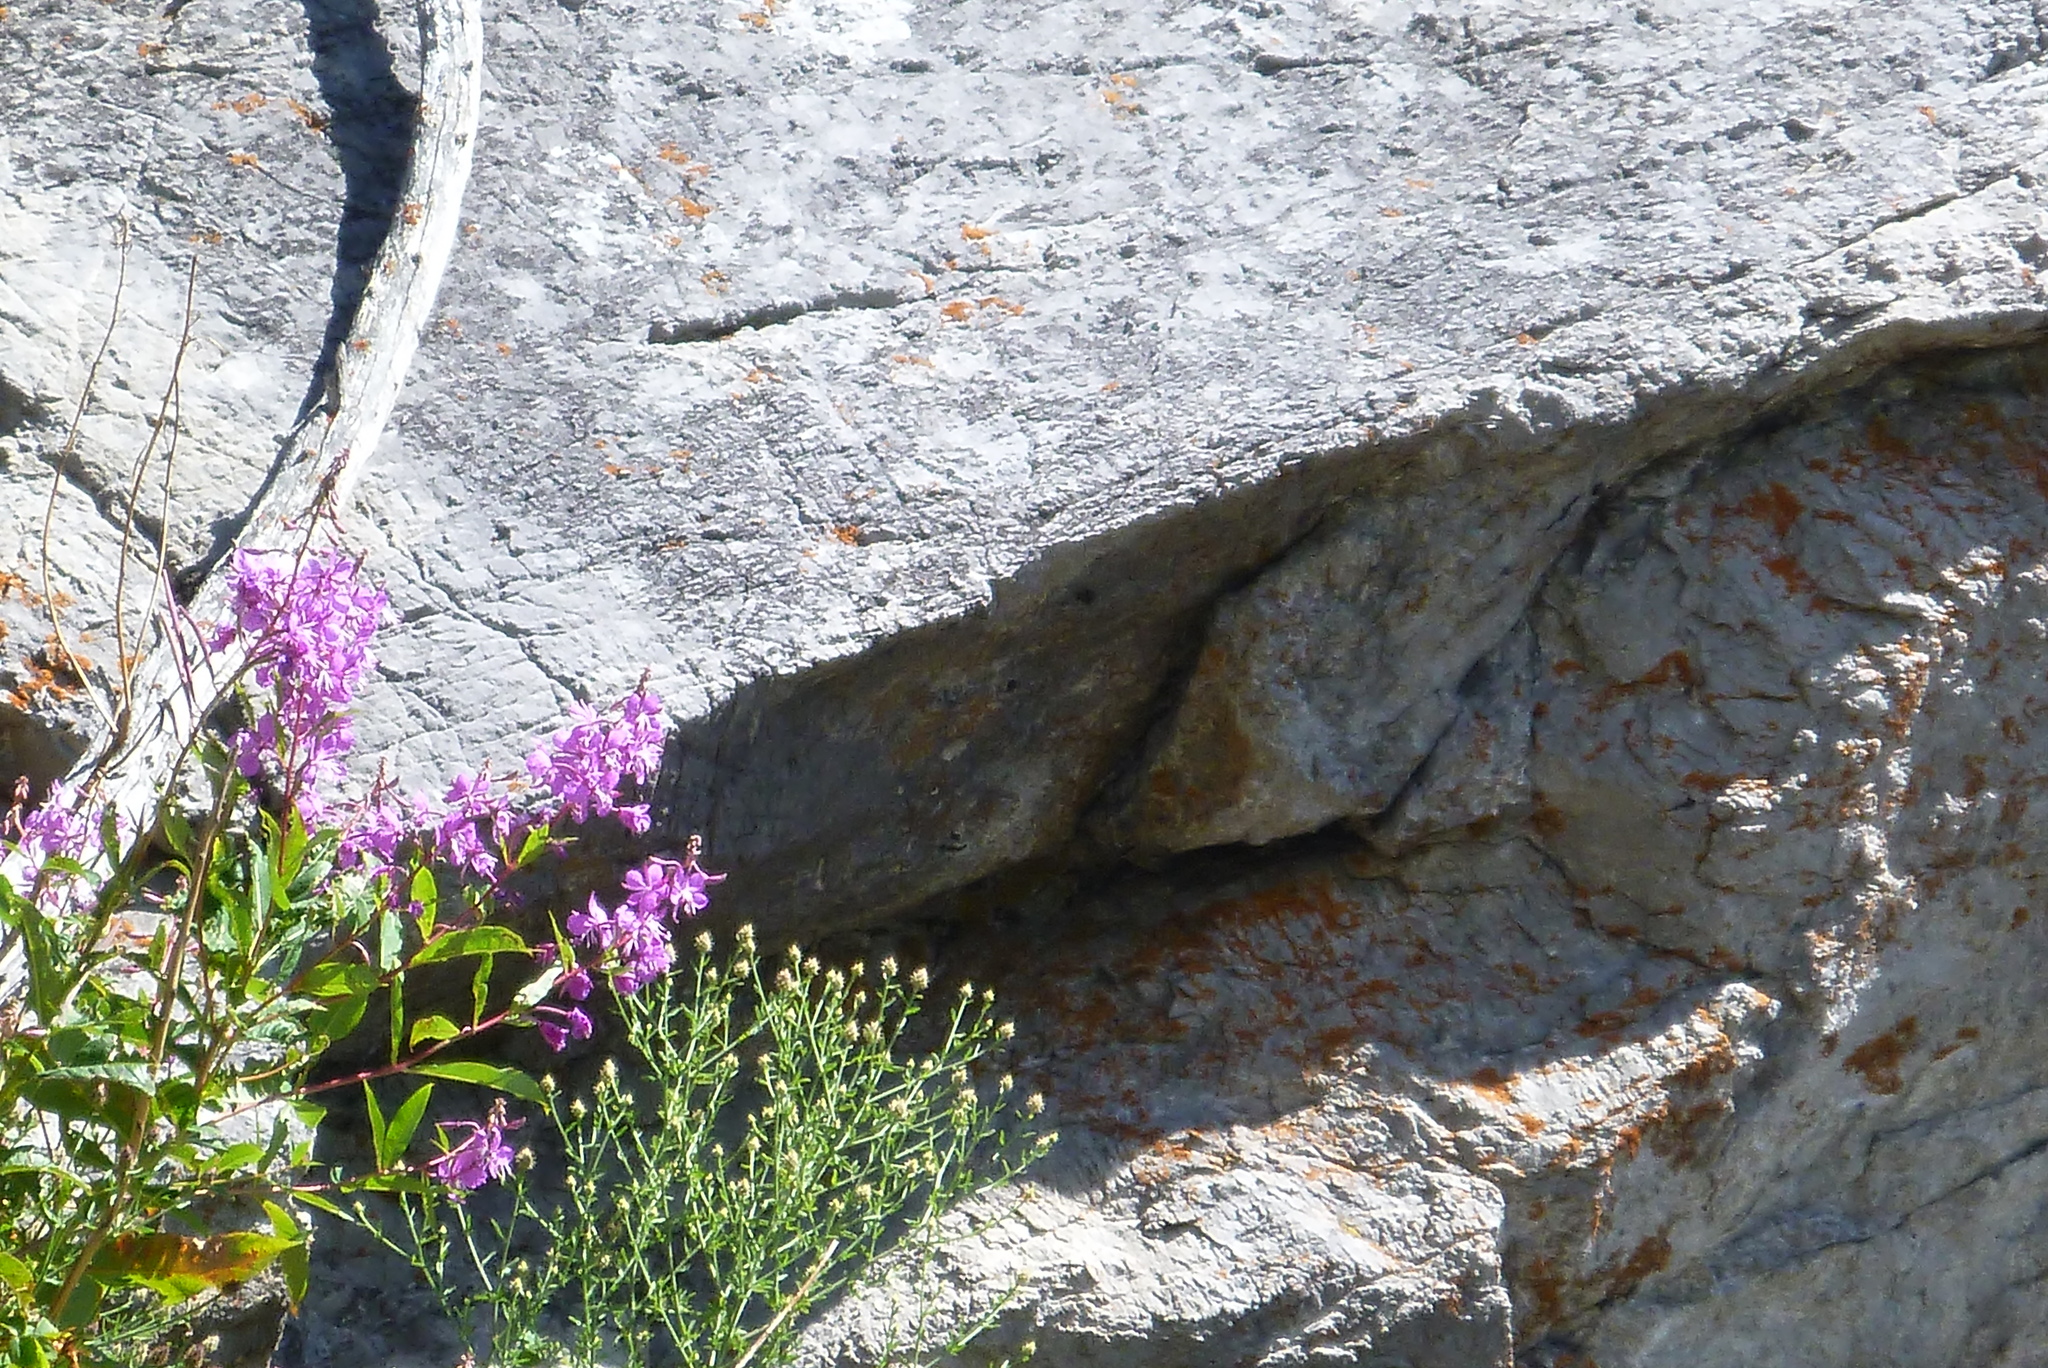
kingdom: Plantae
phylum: Tracheophyta
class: Magnoliopsida
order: Myrtales
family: Onagraceae
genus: Chamaenerion
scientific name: Chamaenerion angustifolium
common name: Fireweed
